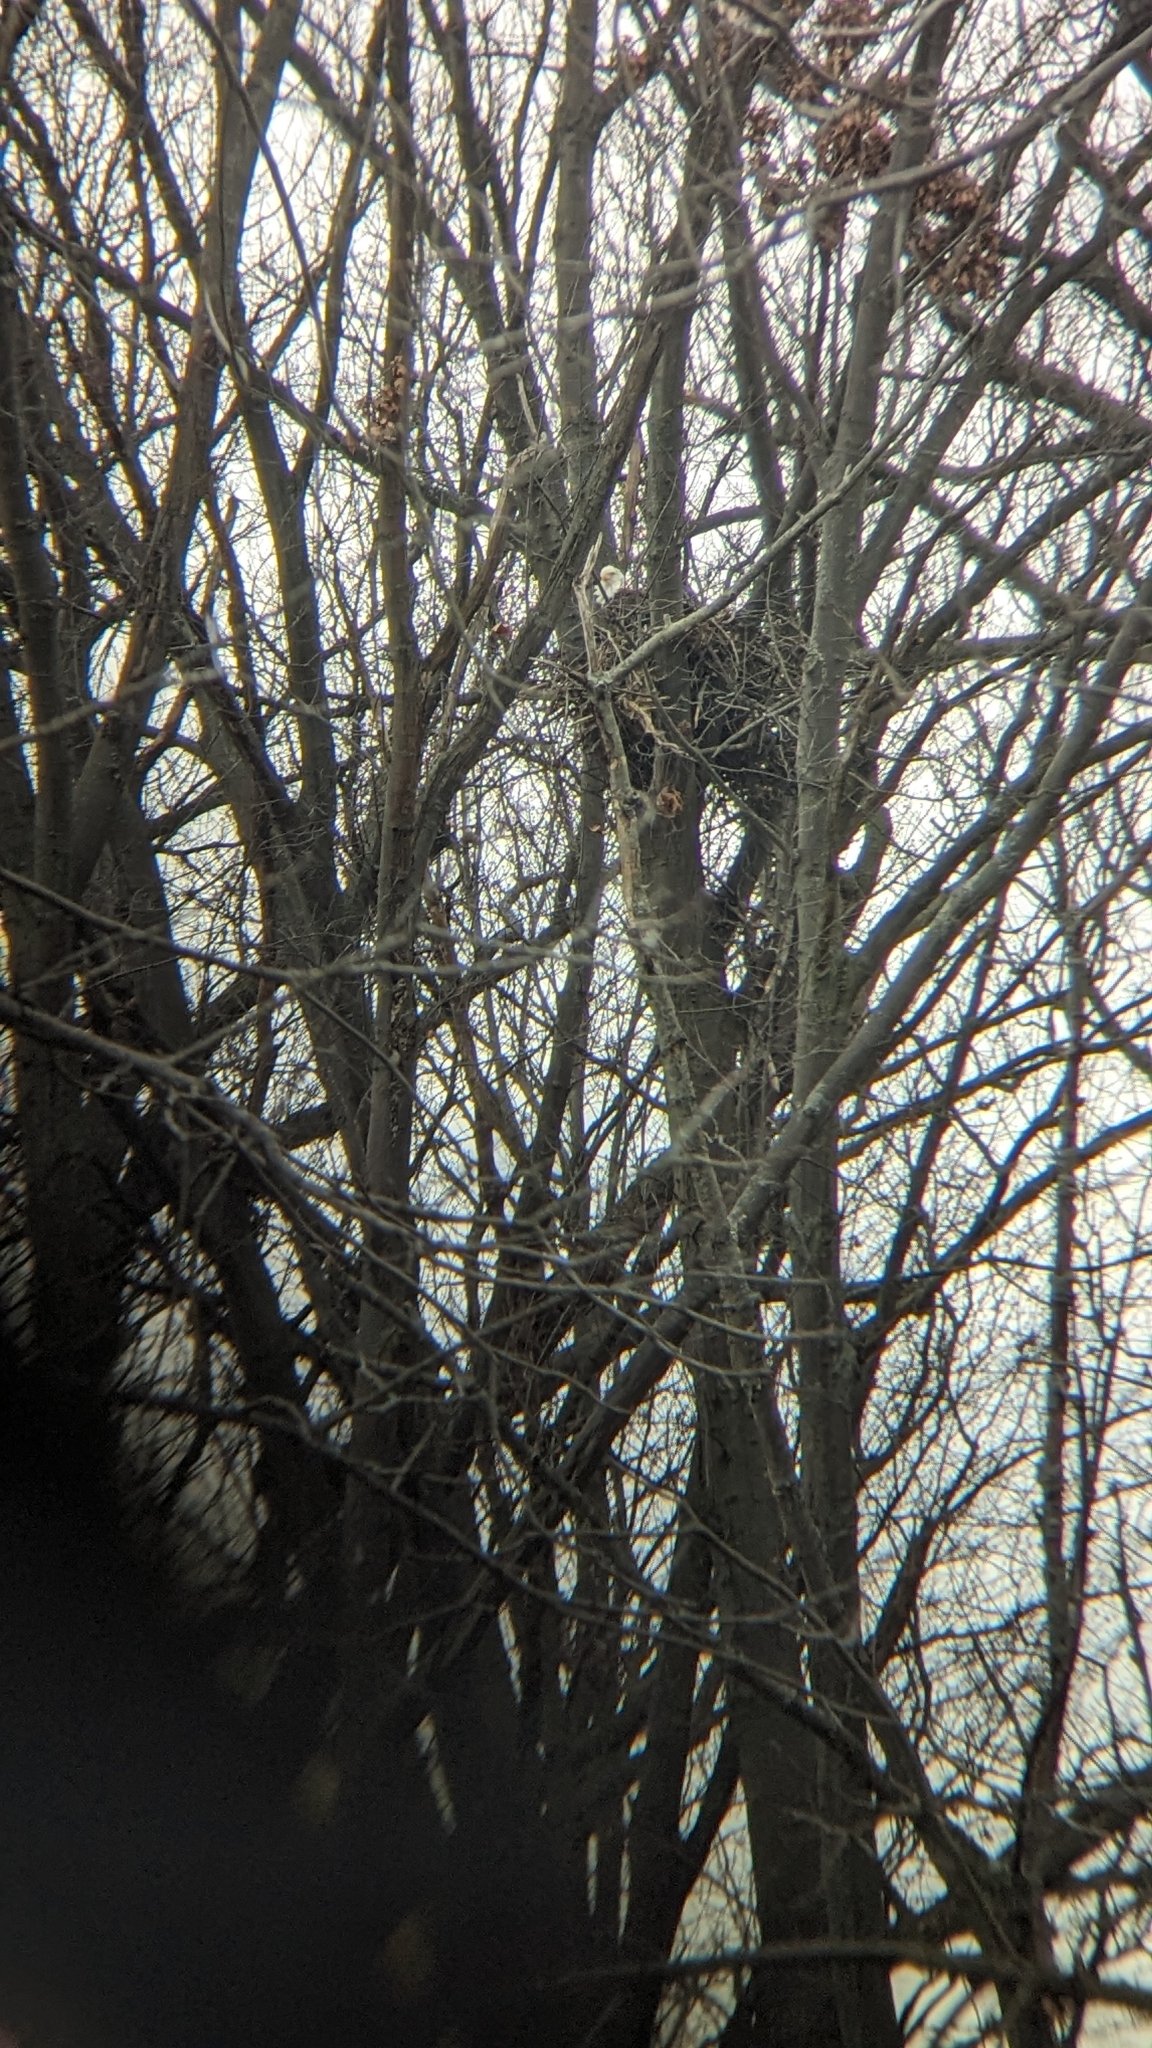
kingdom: Animalia
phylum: Chordata
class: Aves
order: Accipitriformes
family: Accipitridae
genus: Haliaeetus
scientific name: Haliaeetus leucocephalus
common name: Bald eagle
